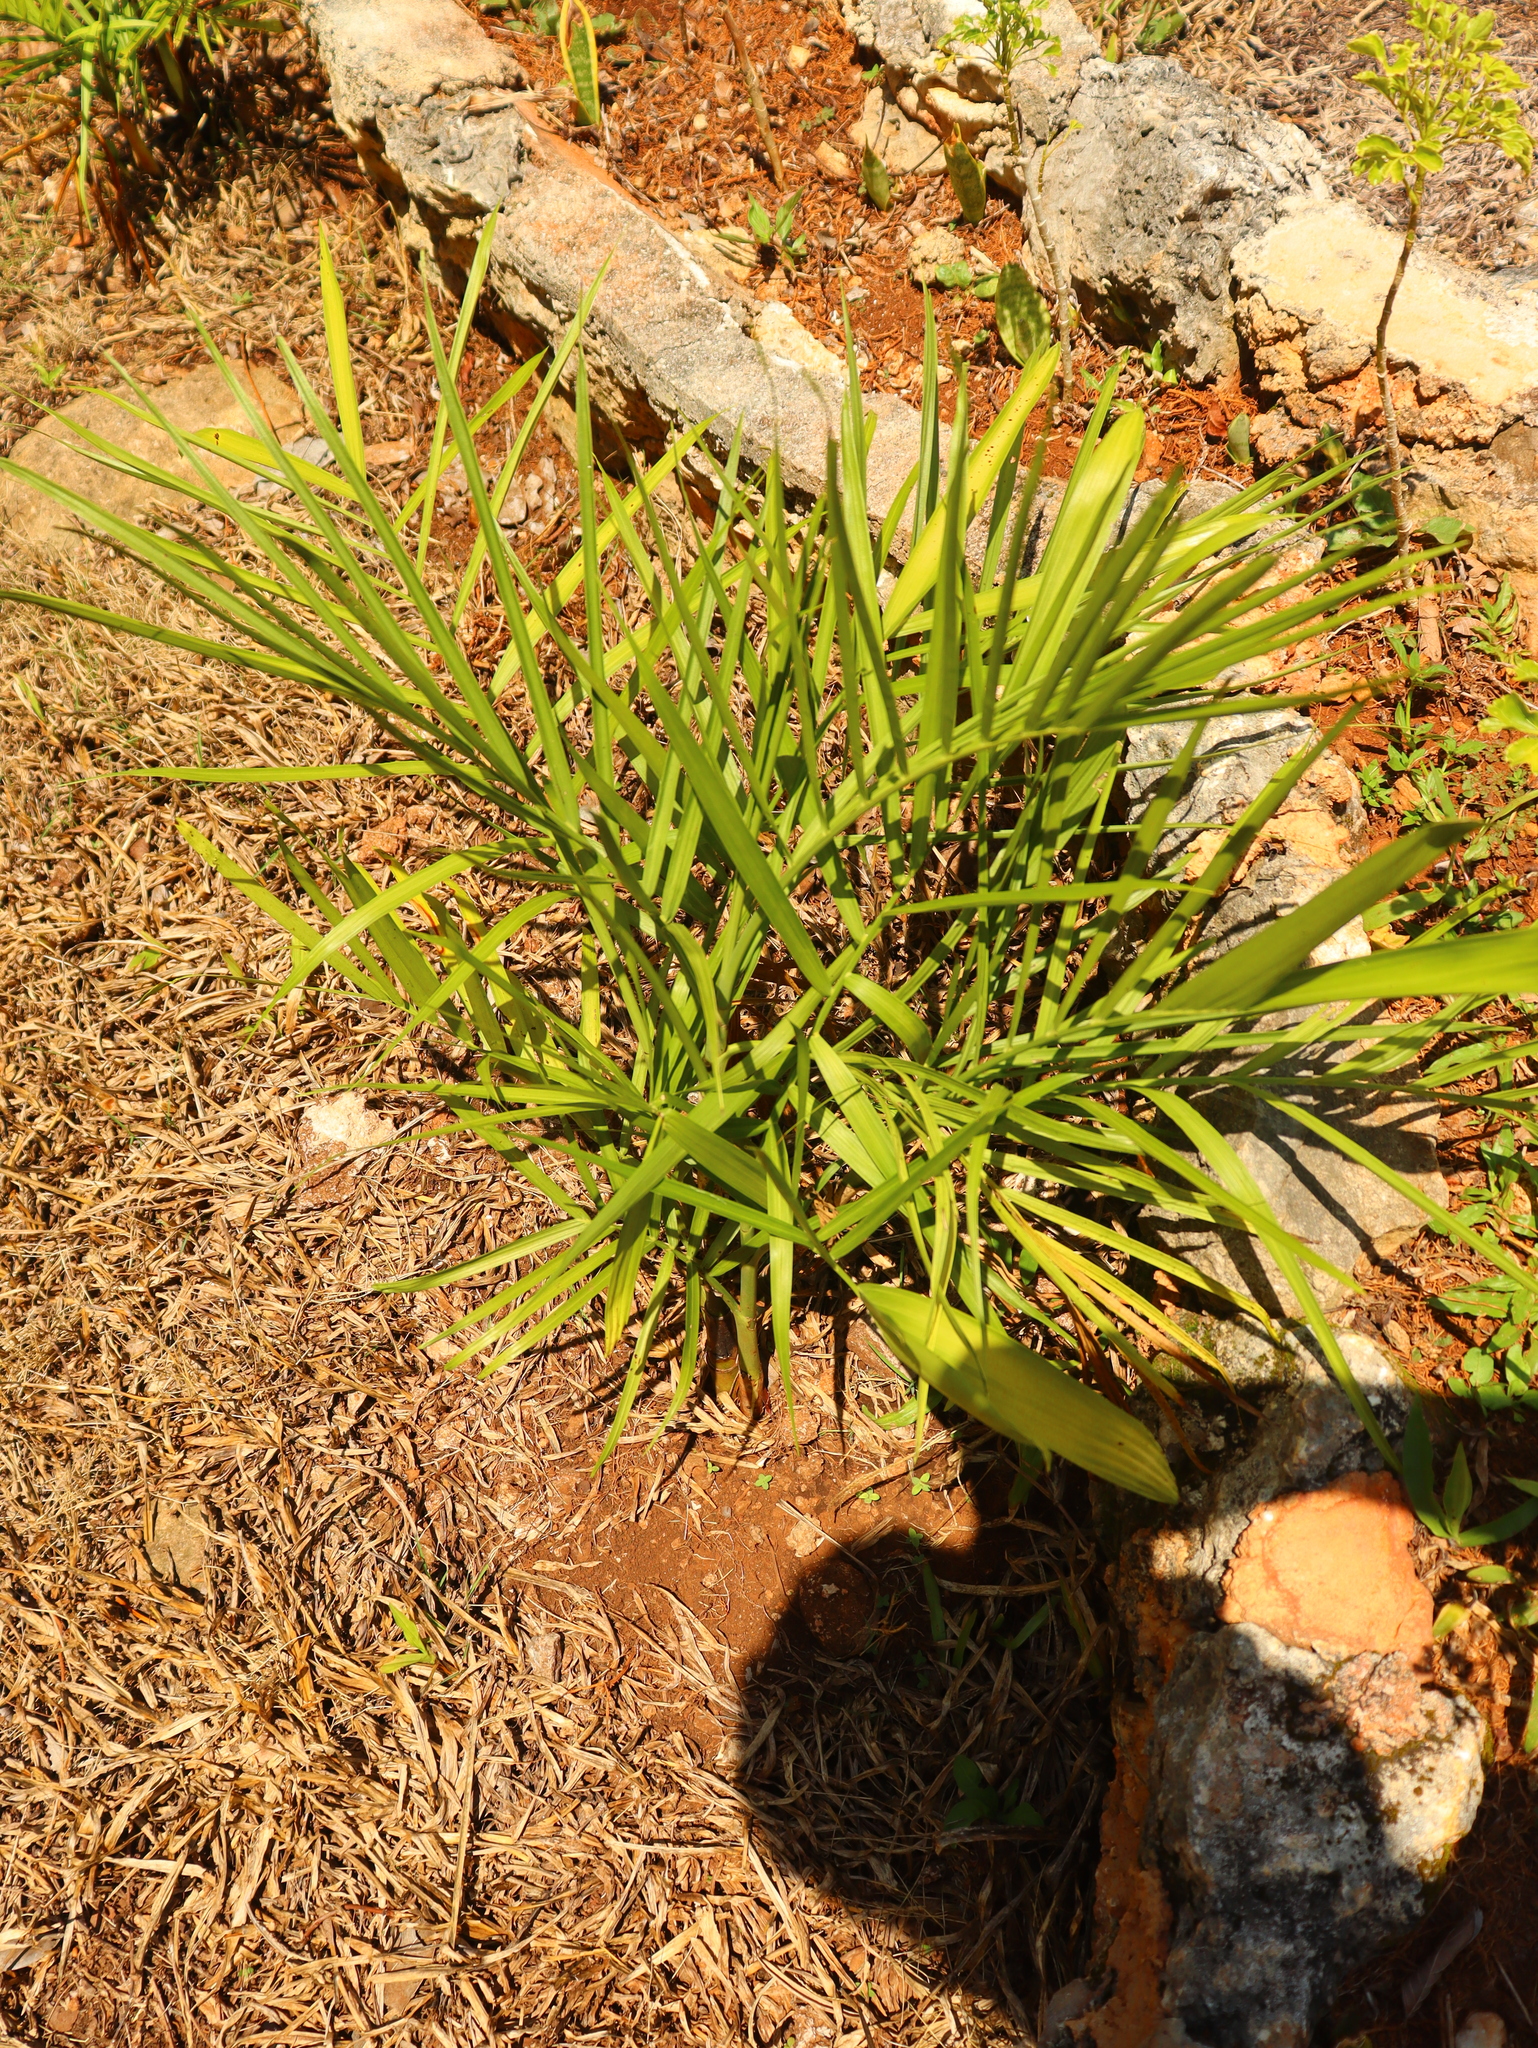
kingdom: Plantae
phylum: Tracheophyta
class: Liliopsida
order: Arecales
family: Arecaceae
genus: Chamaedorea
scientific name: Chamaedorea seifrizii
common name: Seifriz's chamaedorea
